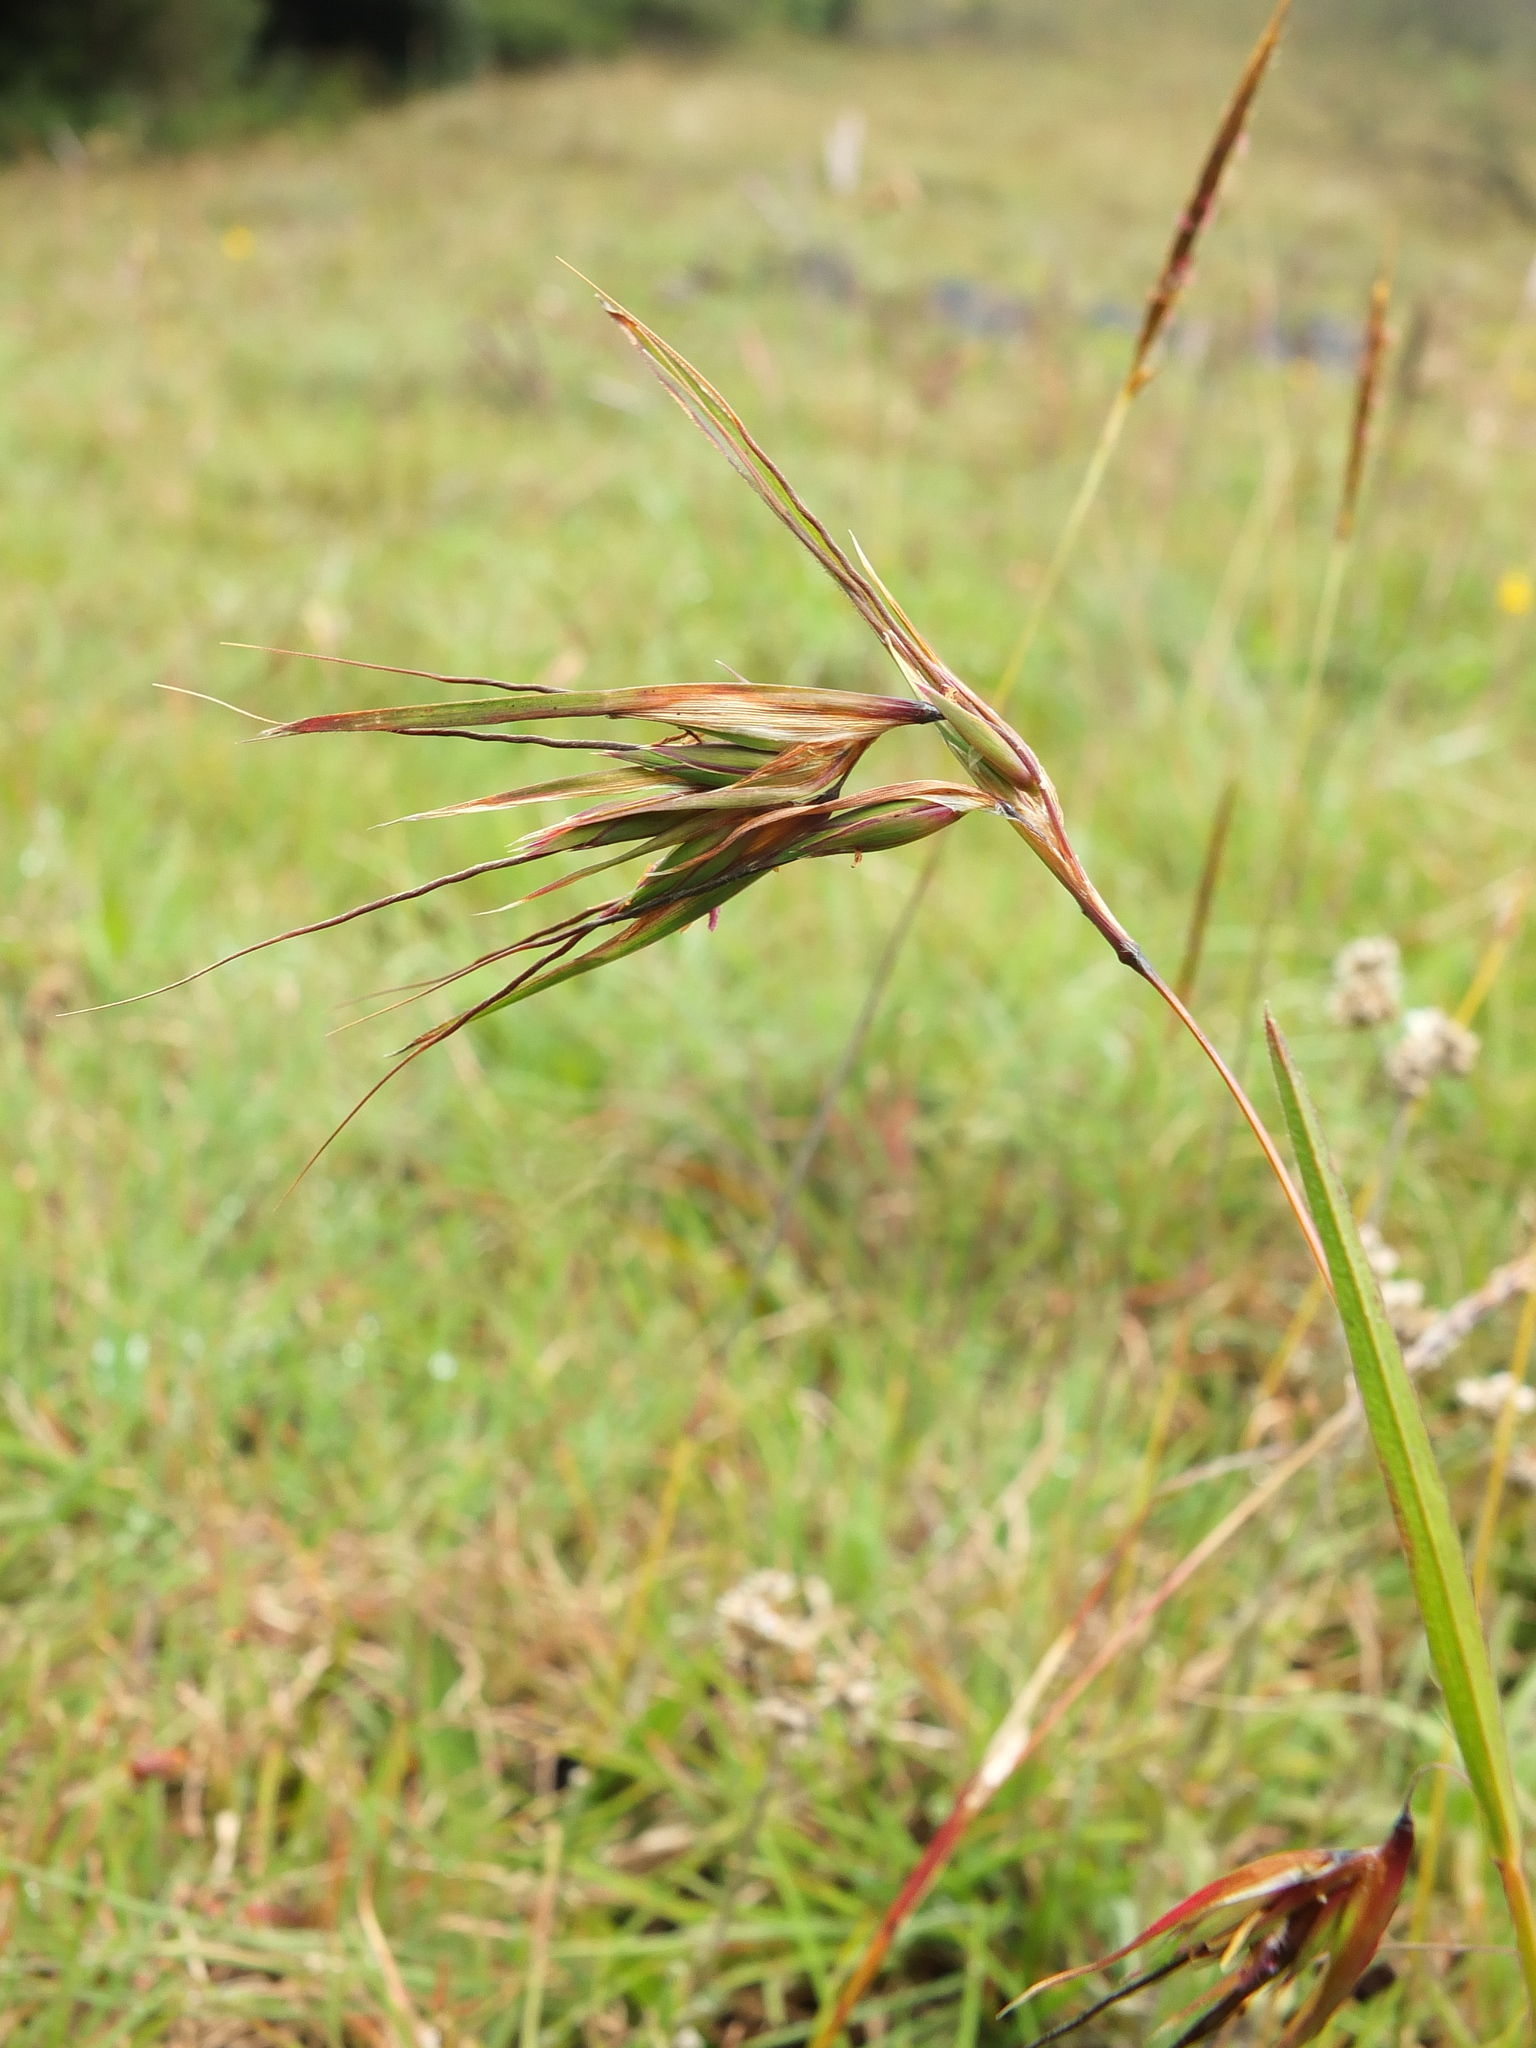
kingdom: Plantae
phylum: Tracheophyta
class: Liliopsida
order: Poales
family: Poaceae
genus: Themeda
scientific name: Themeda triandra
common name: Kangaroo grass
